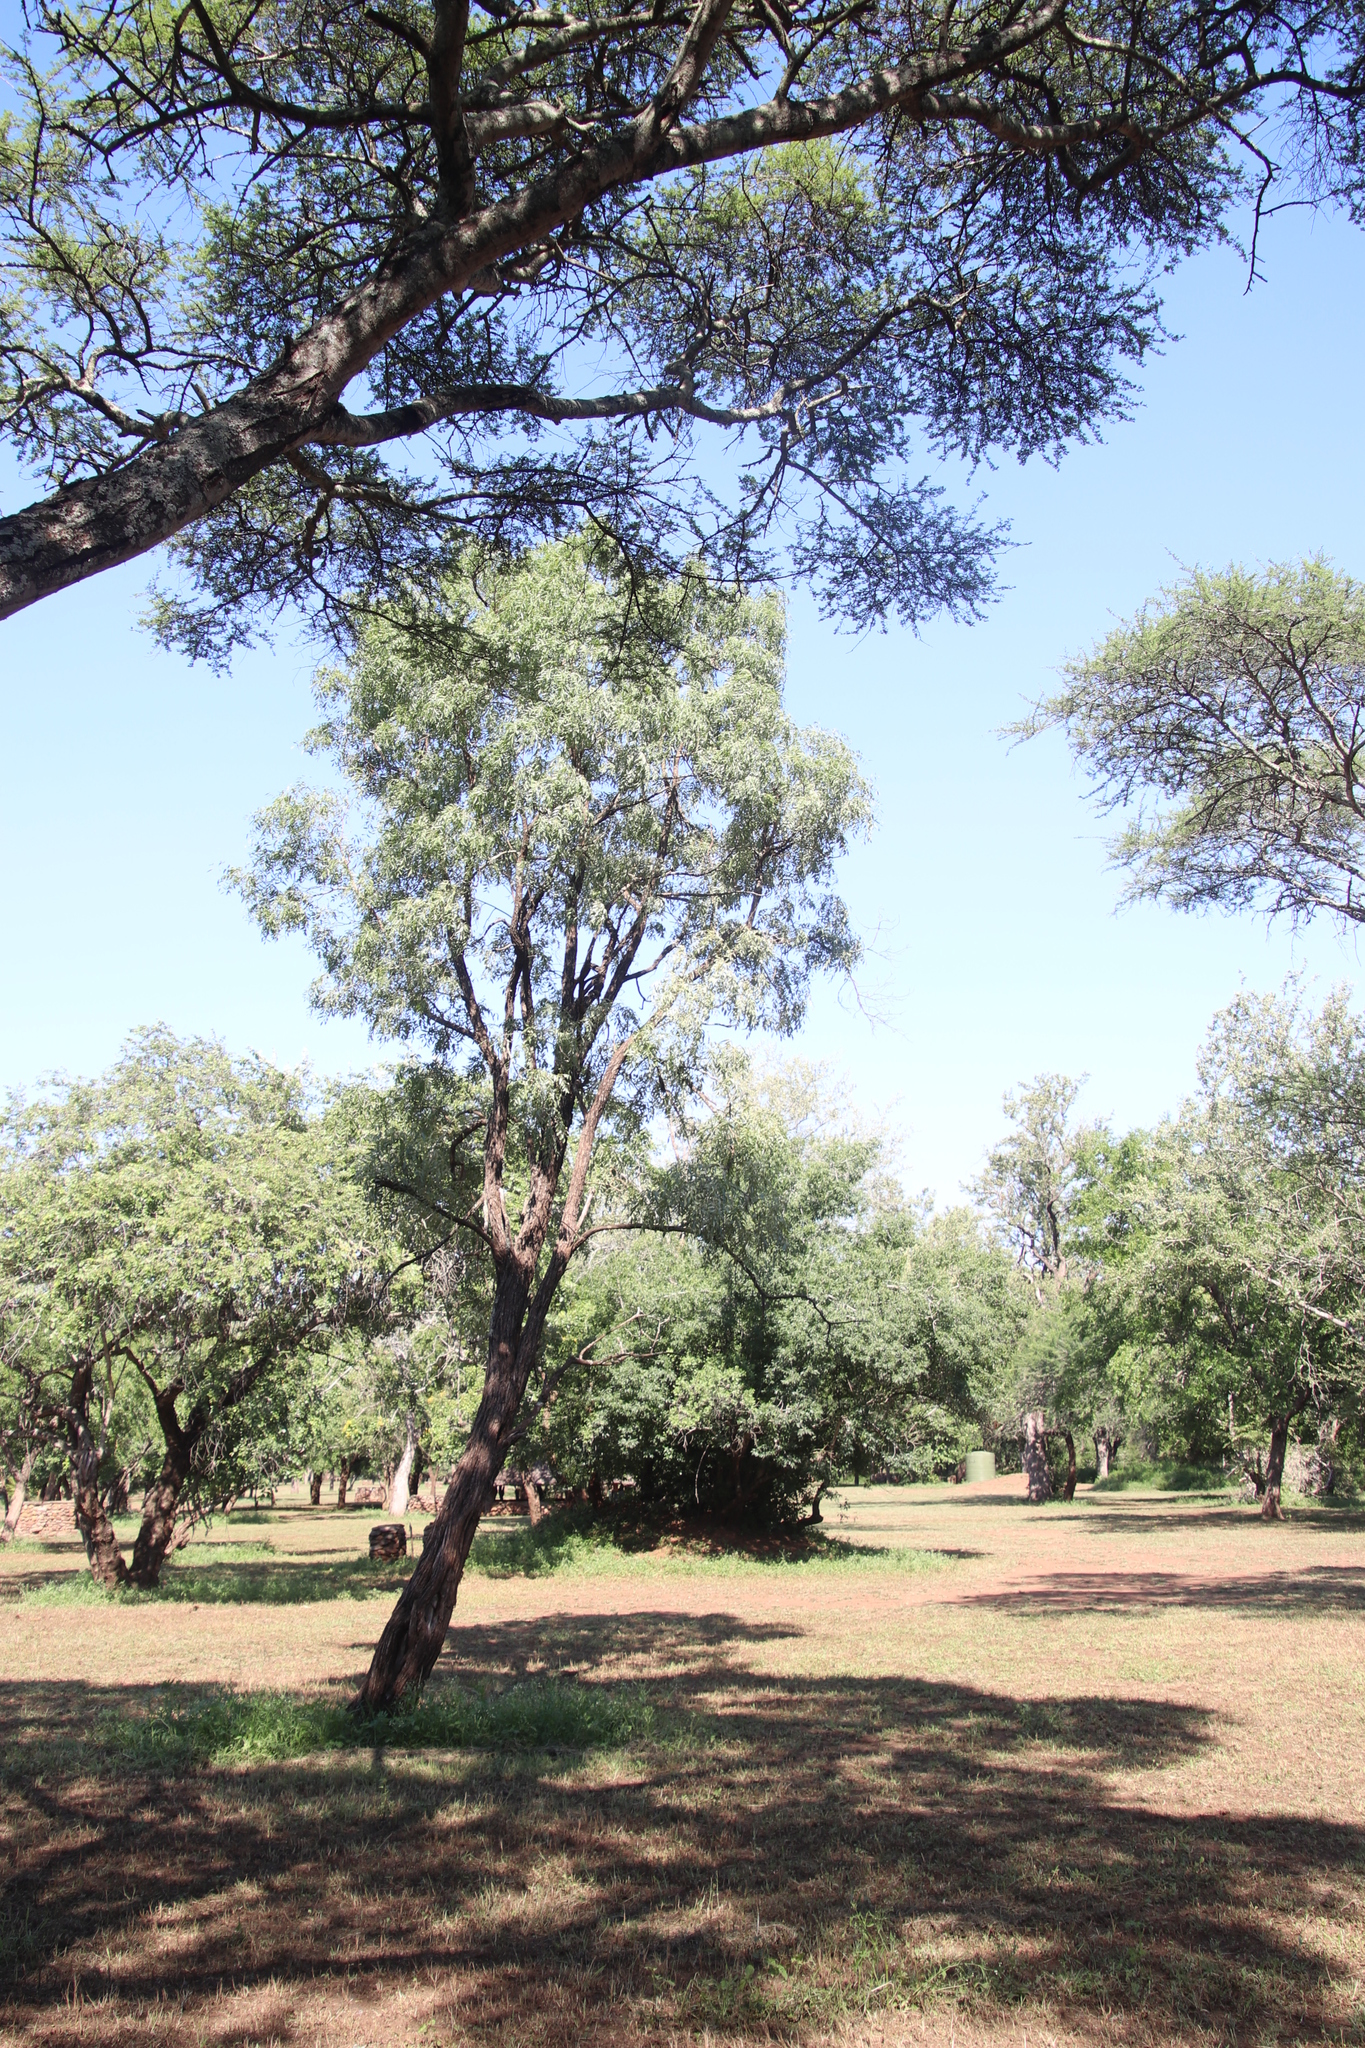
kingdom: Plantae
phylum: Tracheophyta
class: Magnoliopsida
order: Fabales
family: Fabaceae
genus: Bolusanthus
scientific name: Bolusanthus speciosus
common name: Tree wisteria
